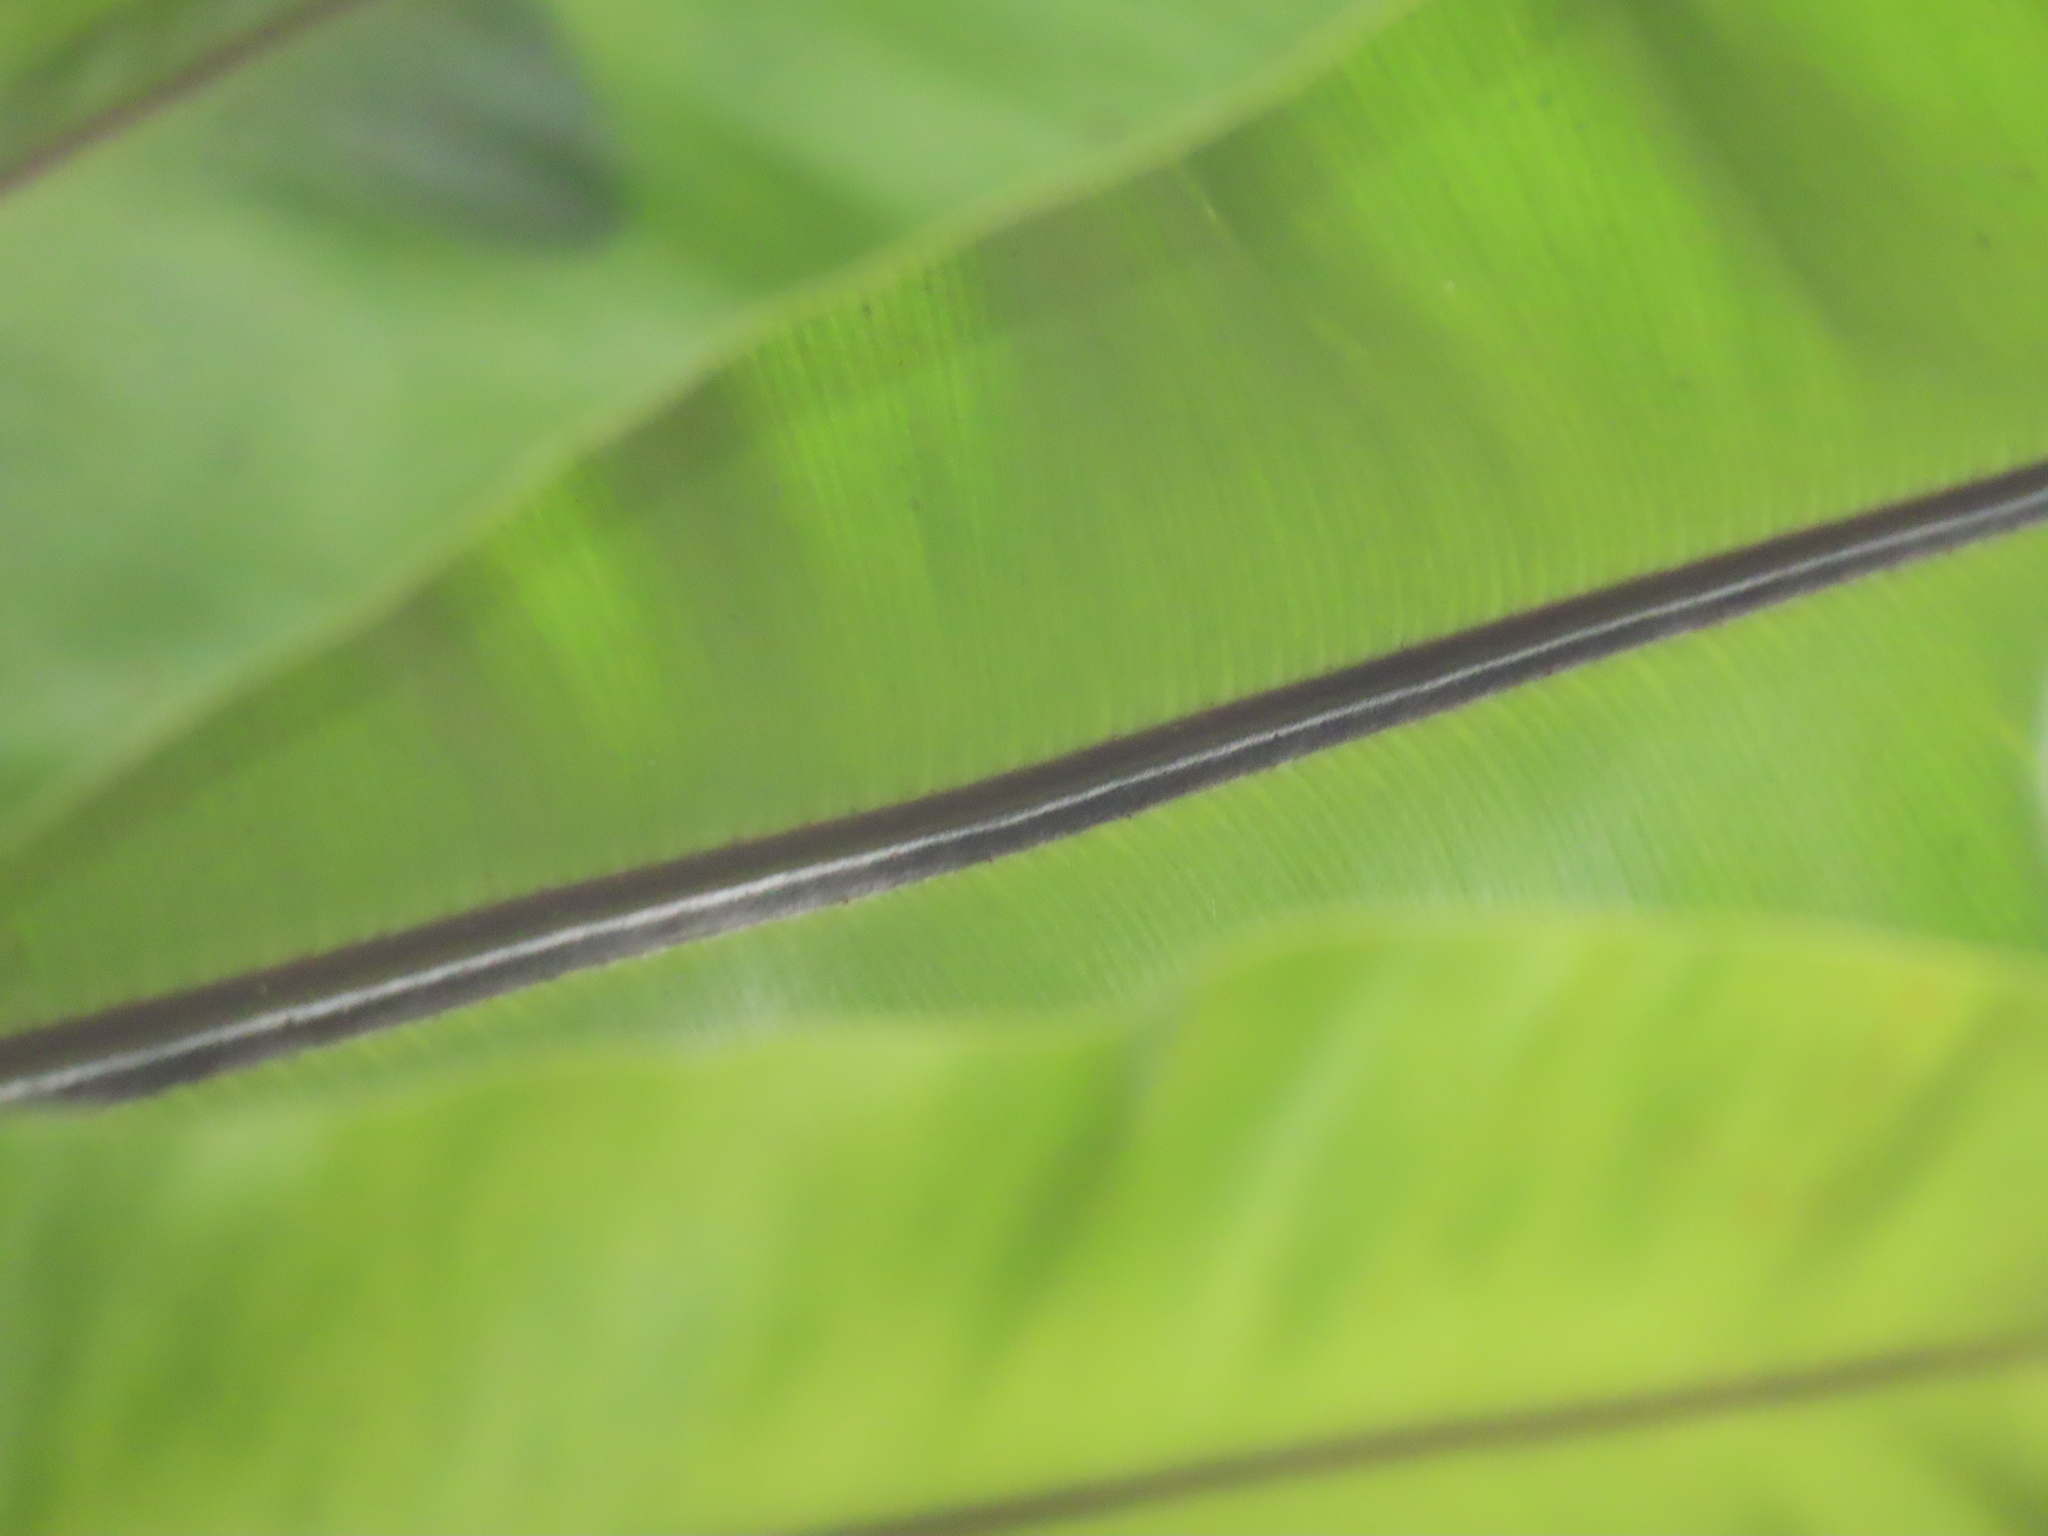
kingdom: Plantae
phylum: Tracheophyta
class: Polypodiopsida
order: Polypodiales
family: Aspleniaceae
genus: Asplenium
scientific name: Asplenium setoi
